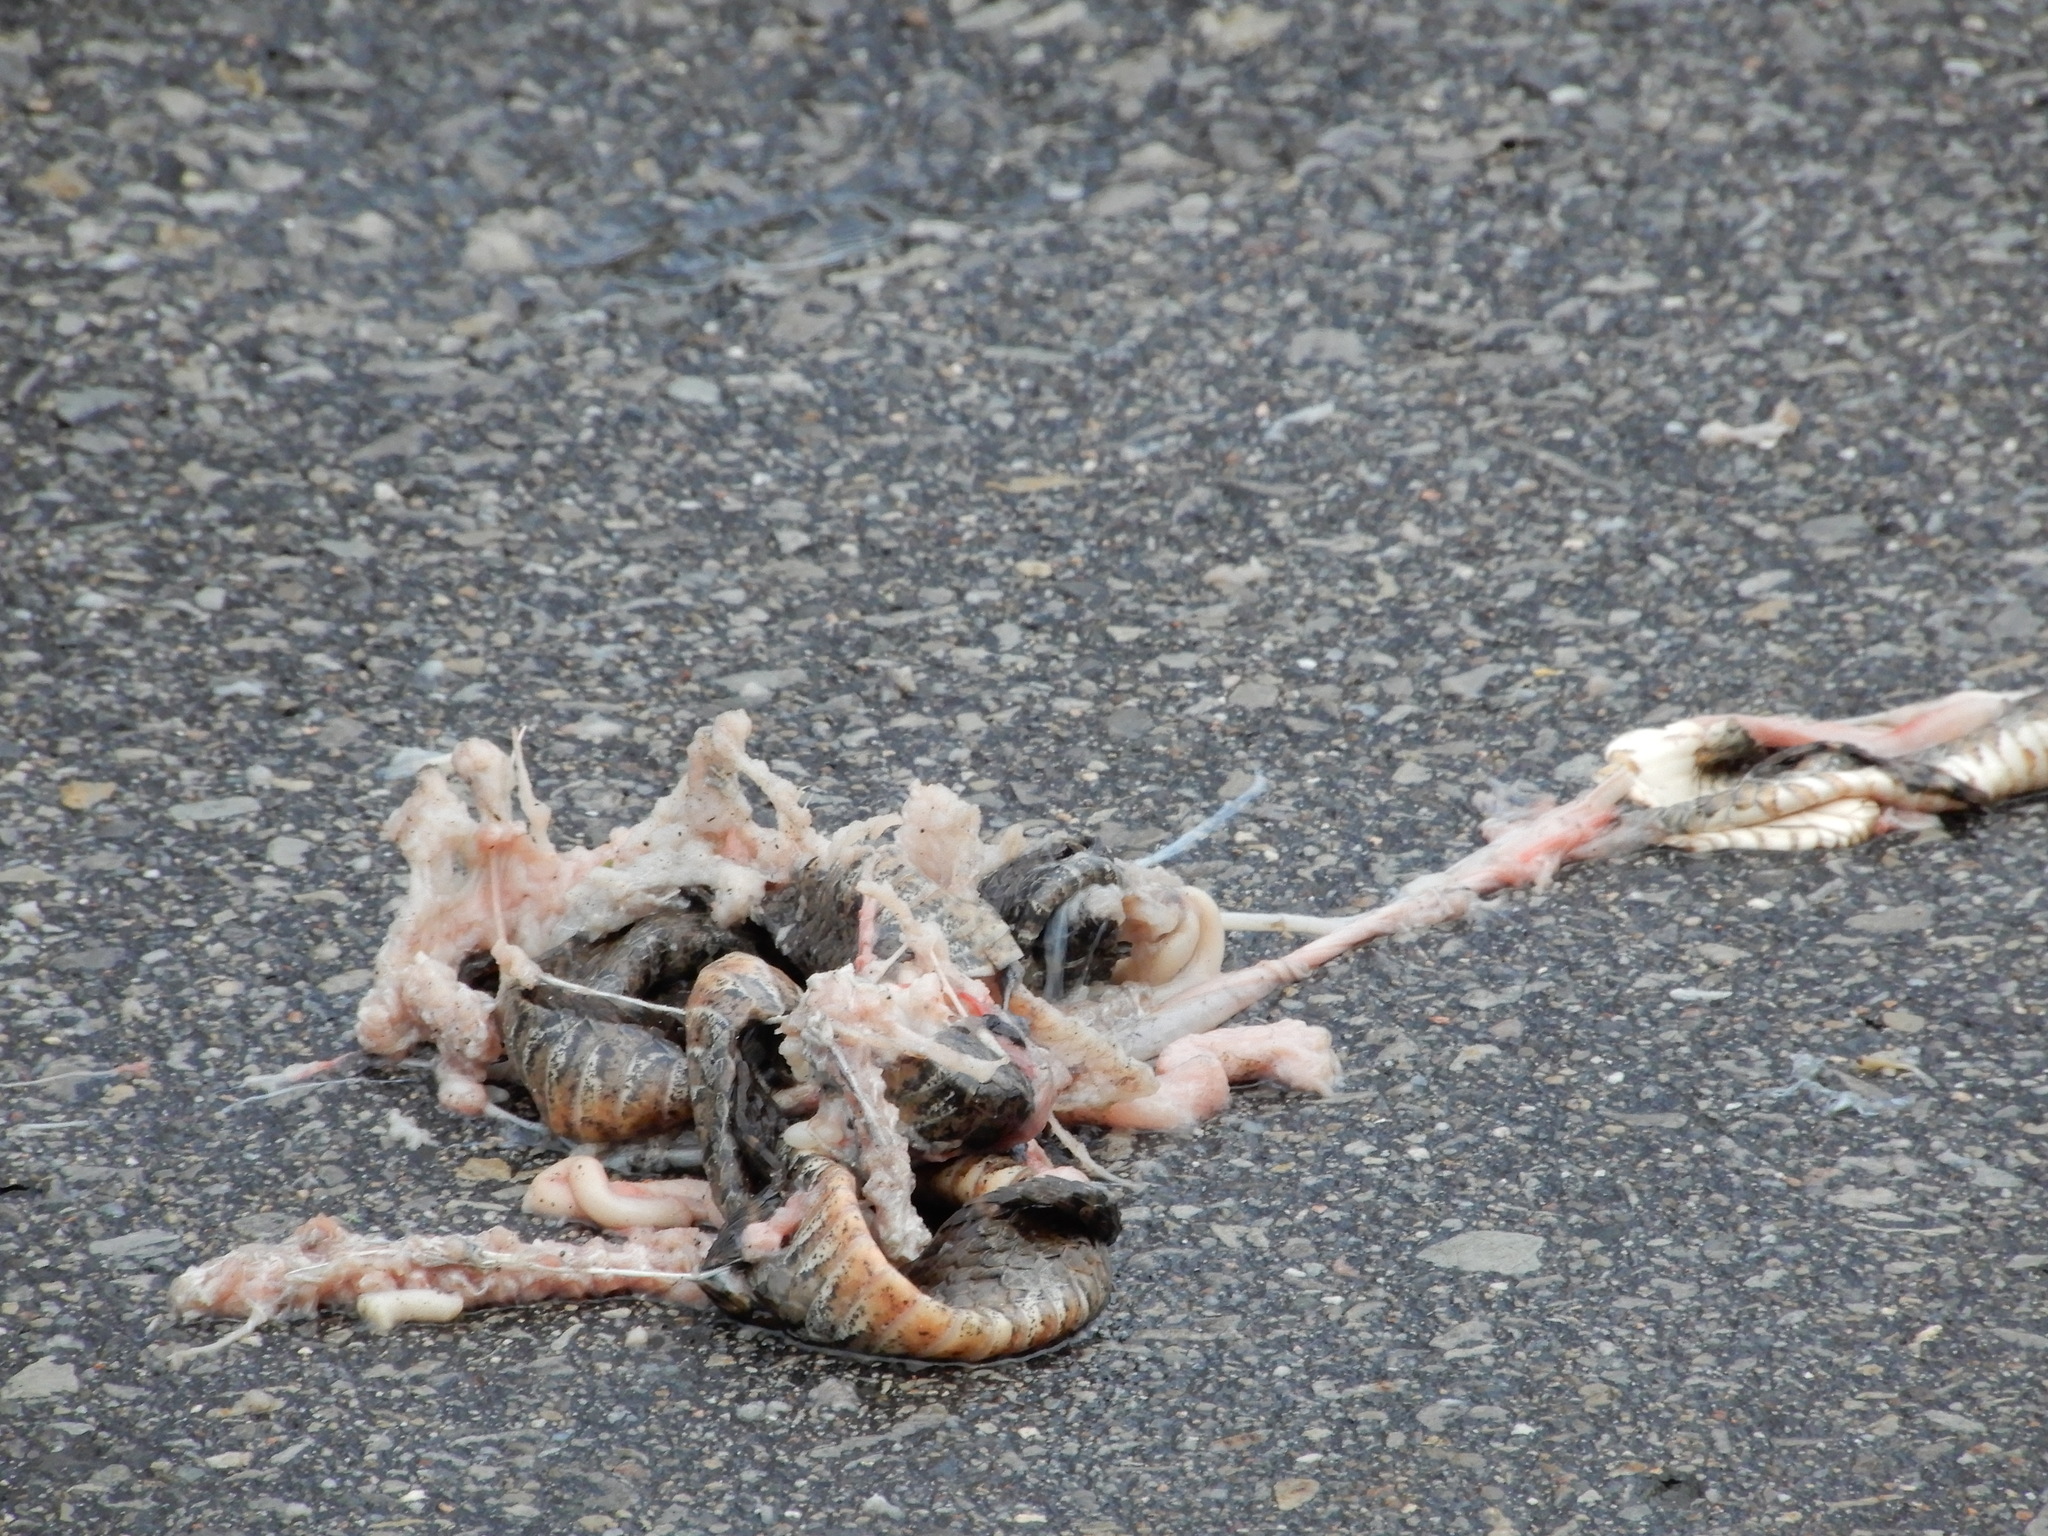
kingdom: Animalia
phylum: Chordata
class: Squamata
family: Colubridae
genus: Nerodia
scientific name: Nerodia sipedon
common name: Northern water snake
